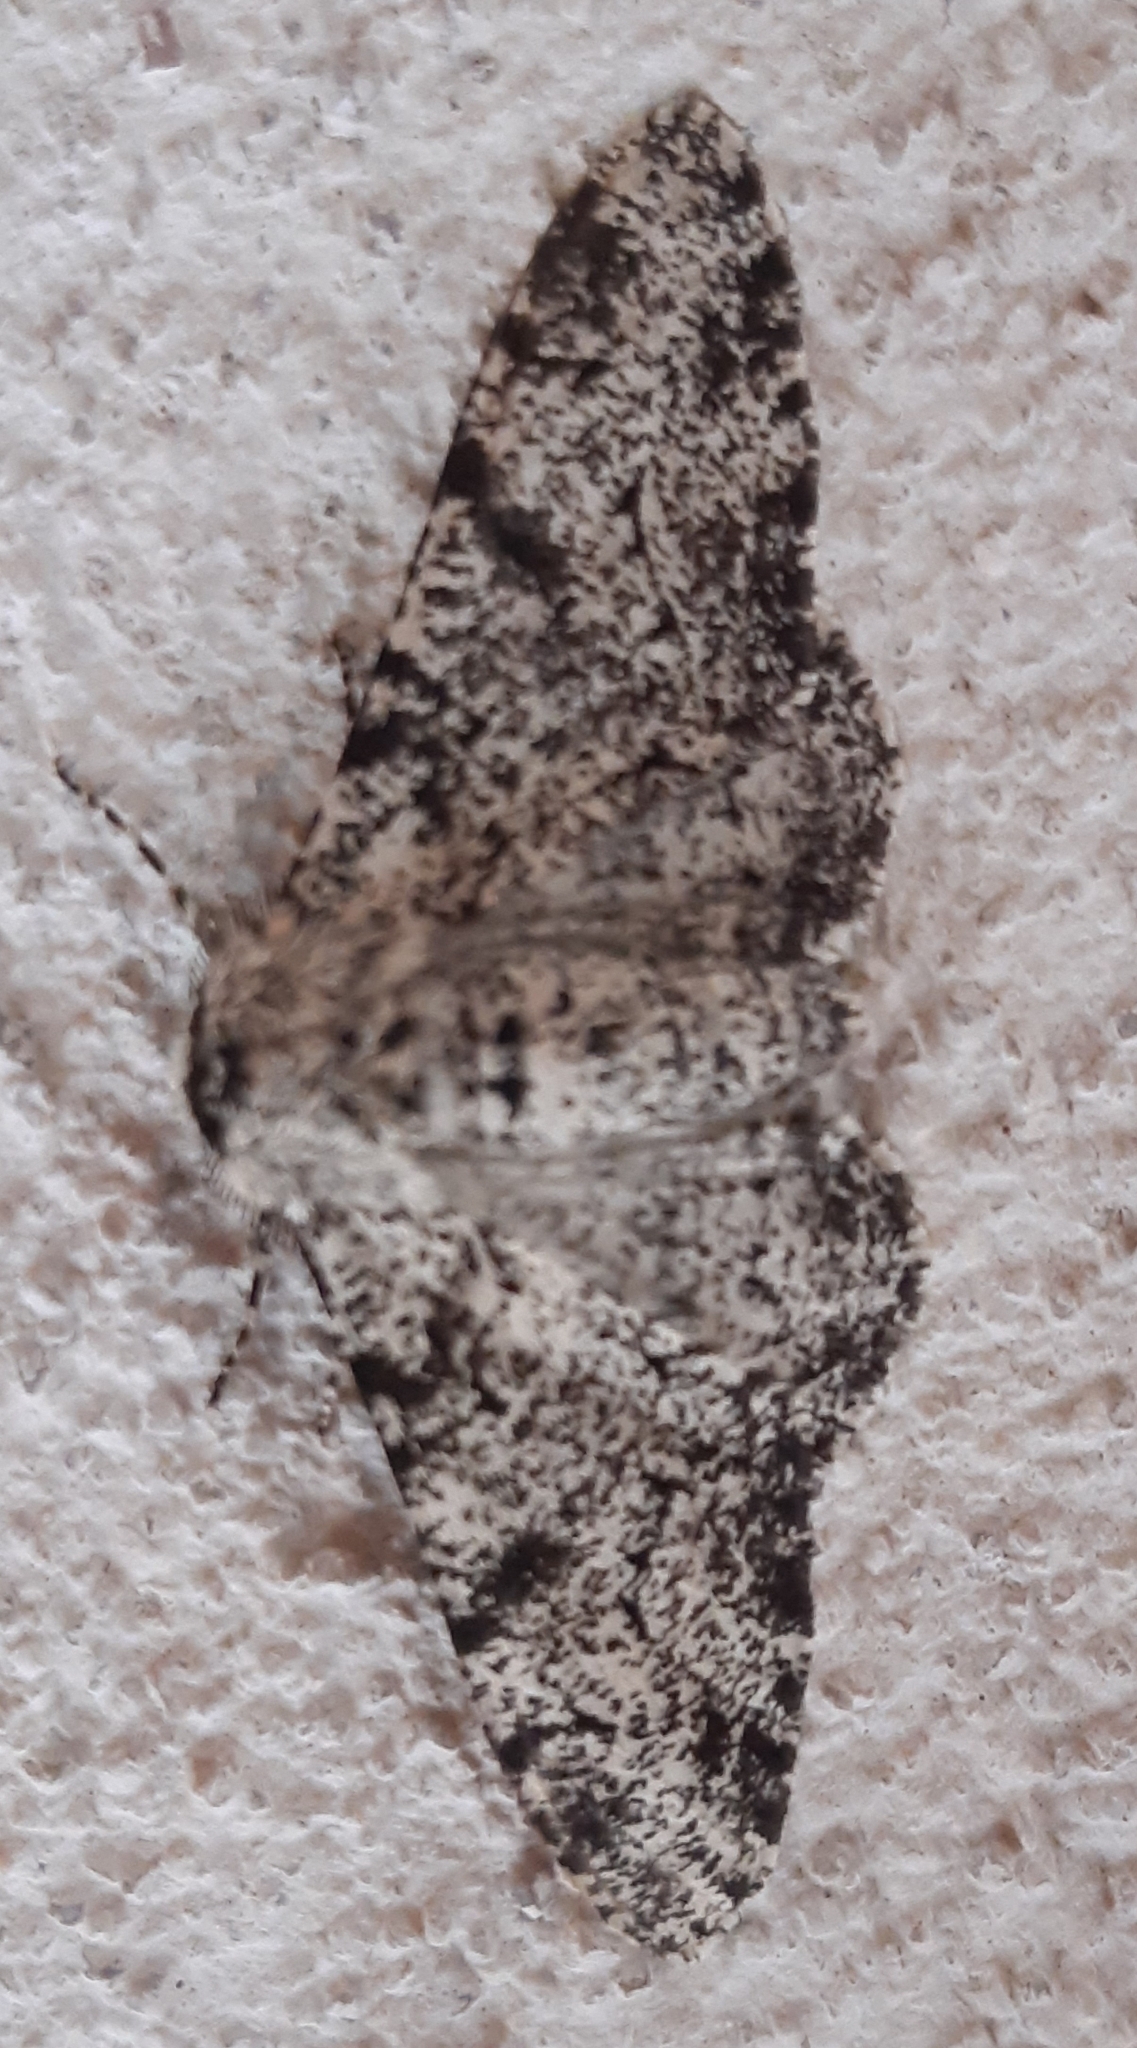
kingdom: Animalia
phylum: Arthropoda
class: Insecta
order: Lepidoptera
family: Geometridae
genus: Biston
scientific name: Biston betularia
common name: Peppered moth
